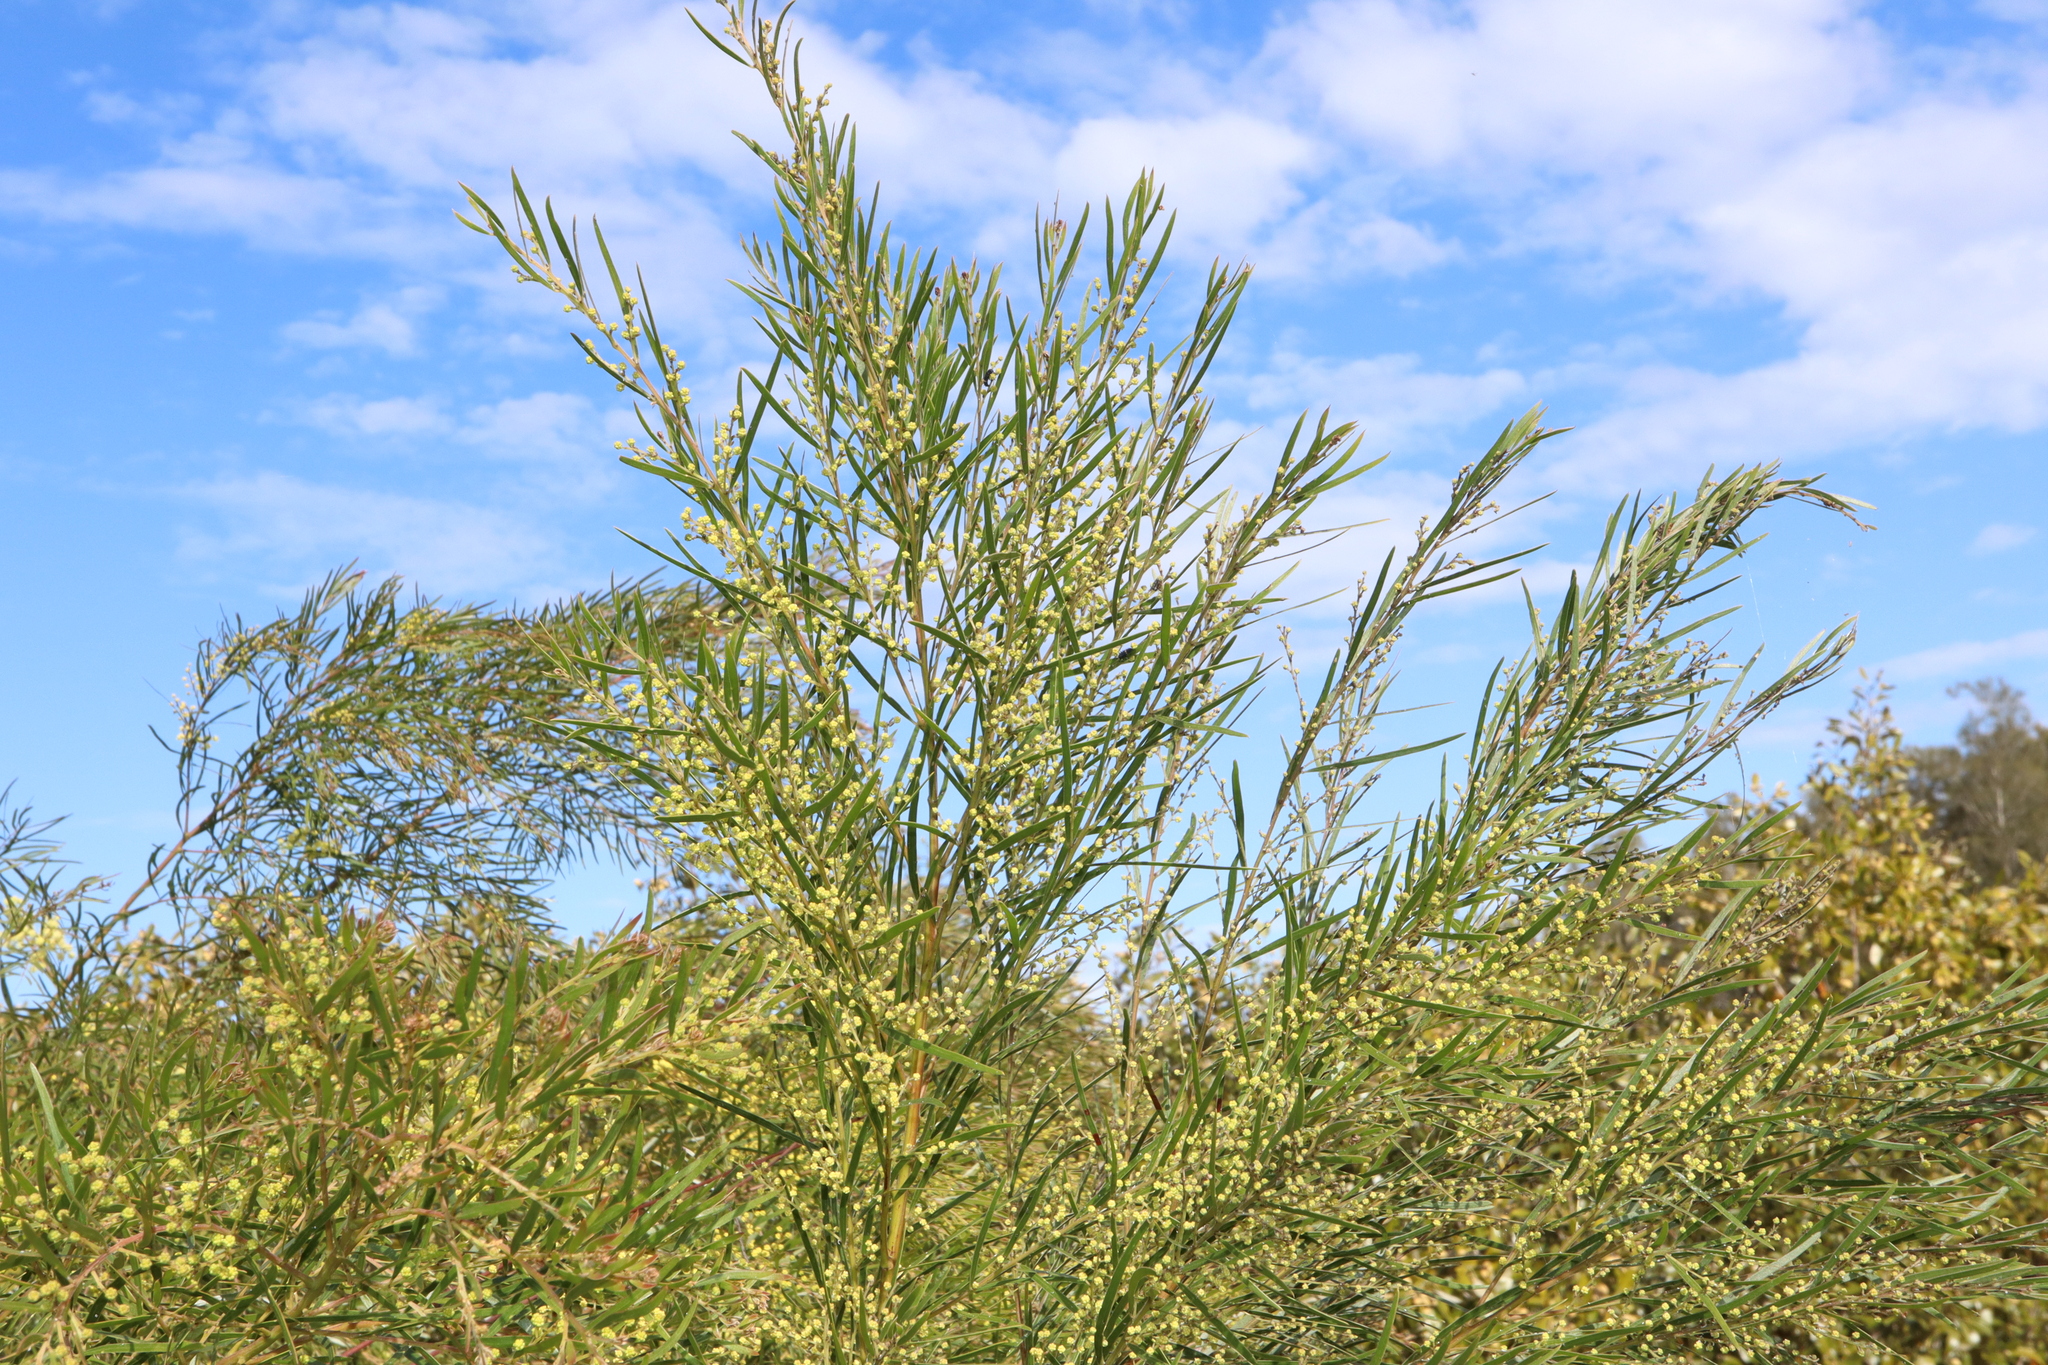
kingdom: Plantae
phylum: Tracheophyta
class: Magnoliopsida
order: Fabales
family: Fabaceae
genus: Acacia
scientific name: Acacia fimbriata
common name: Brisbane golden wattle
